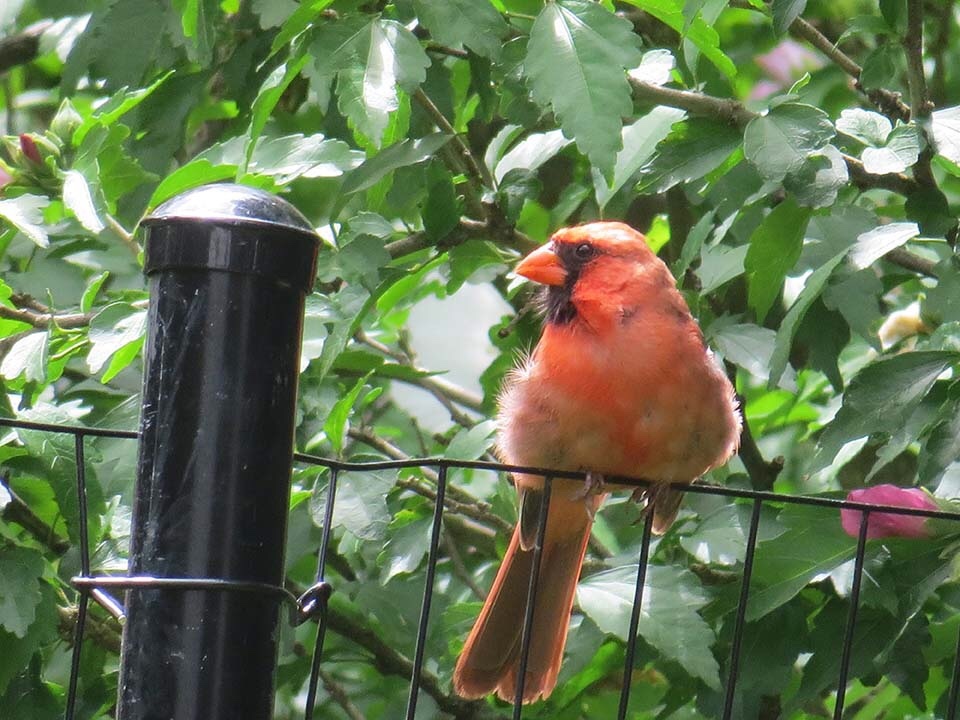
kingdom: Animalia
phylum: Chordata
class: Aves
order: Passeriformes
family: Cardinalidae
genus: Cardinalis
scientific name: Cardinalis cardinalis
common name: Northern cardinal
